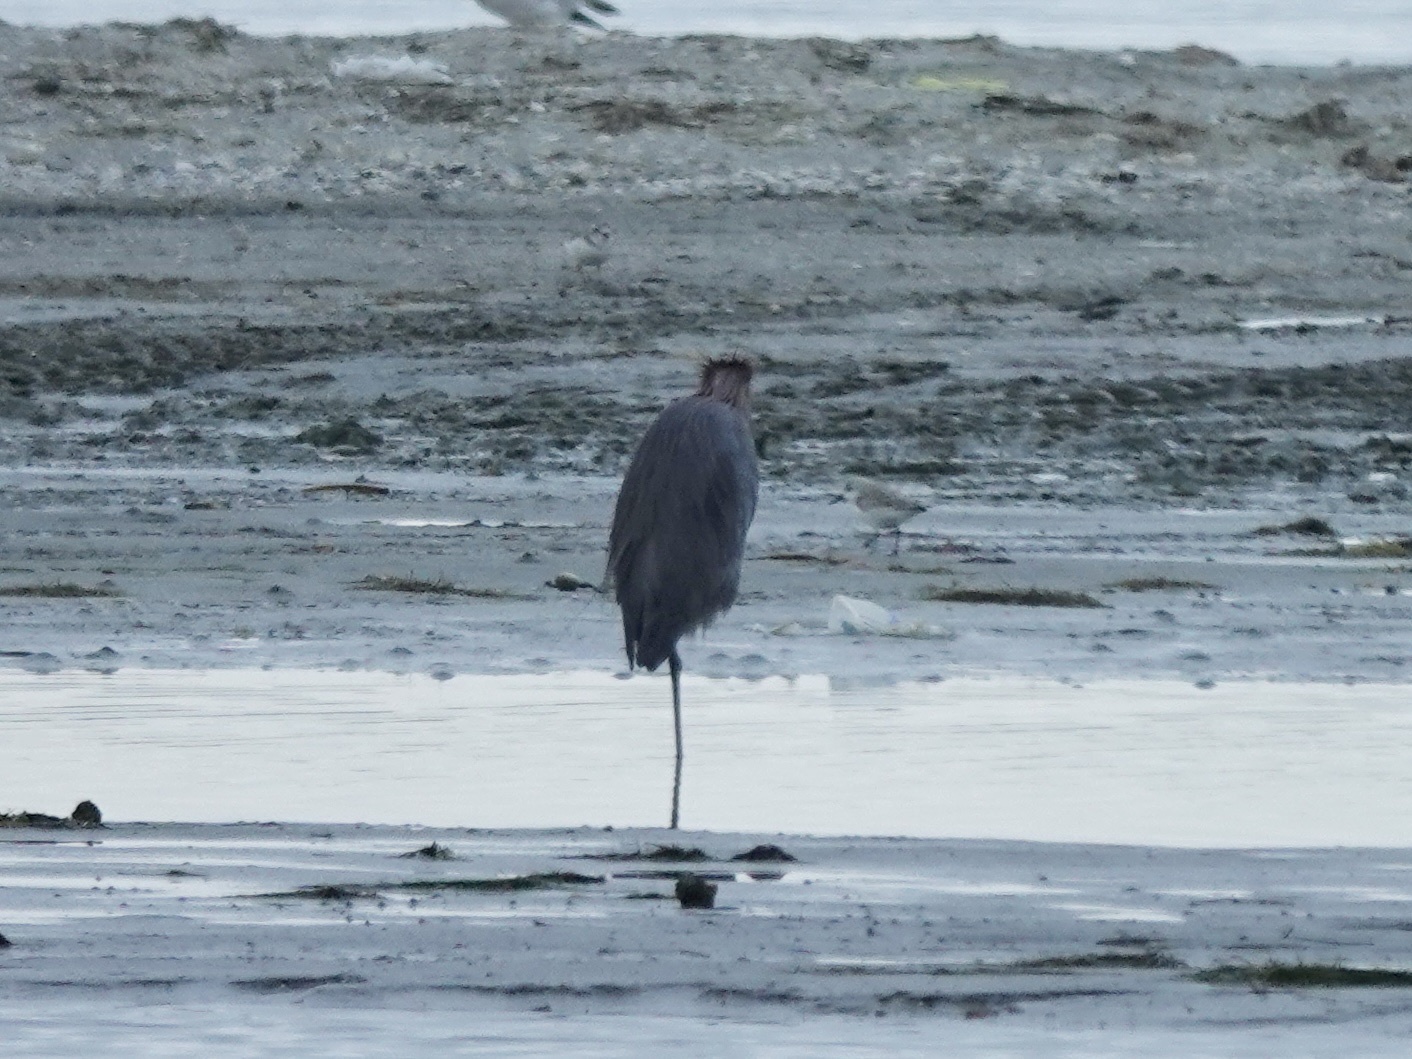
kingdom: Animalia
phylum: Chordata
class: Aves
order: Pelecaniformes
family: Ardeidae
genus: Egretta
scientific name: Egretta rufescens
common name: Reddish egret
